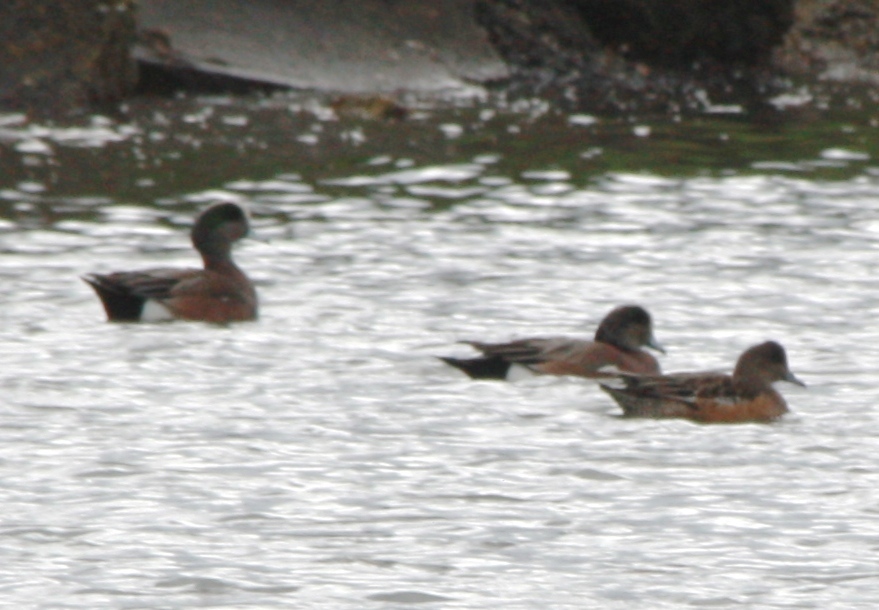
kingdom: Animalia
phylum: Chordata
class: Aves
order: Anseriformes
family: Anatidae
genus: Mareca
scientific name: Mareca americana
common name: American wigeon
